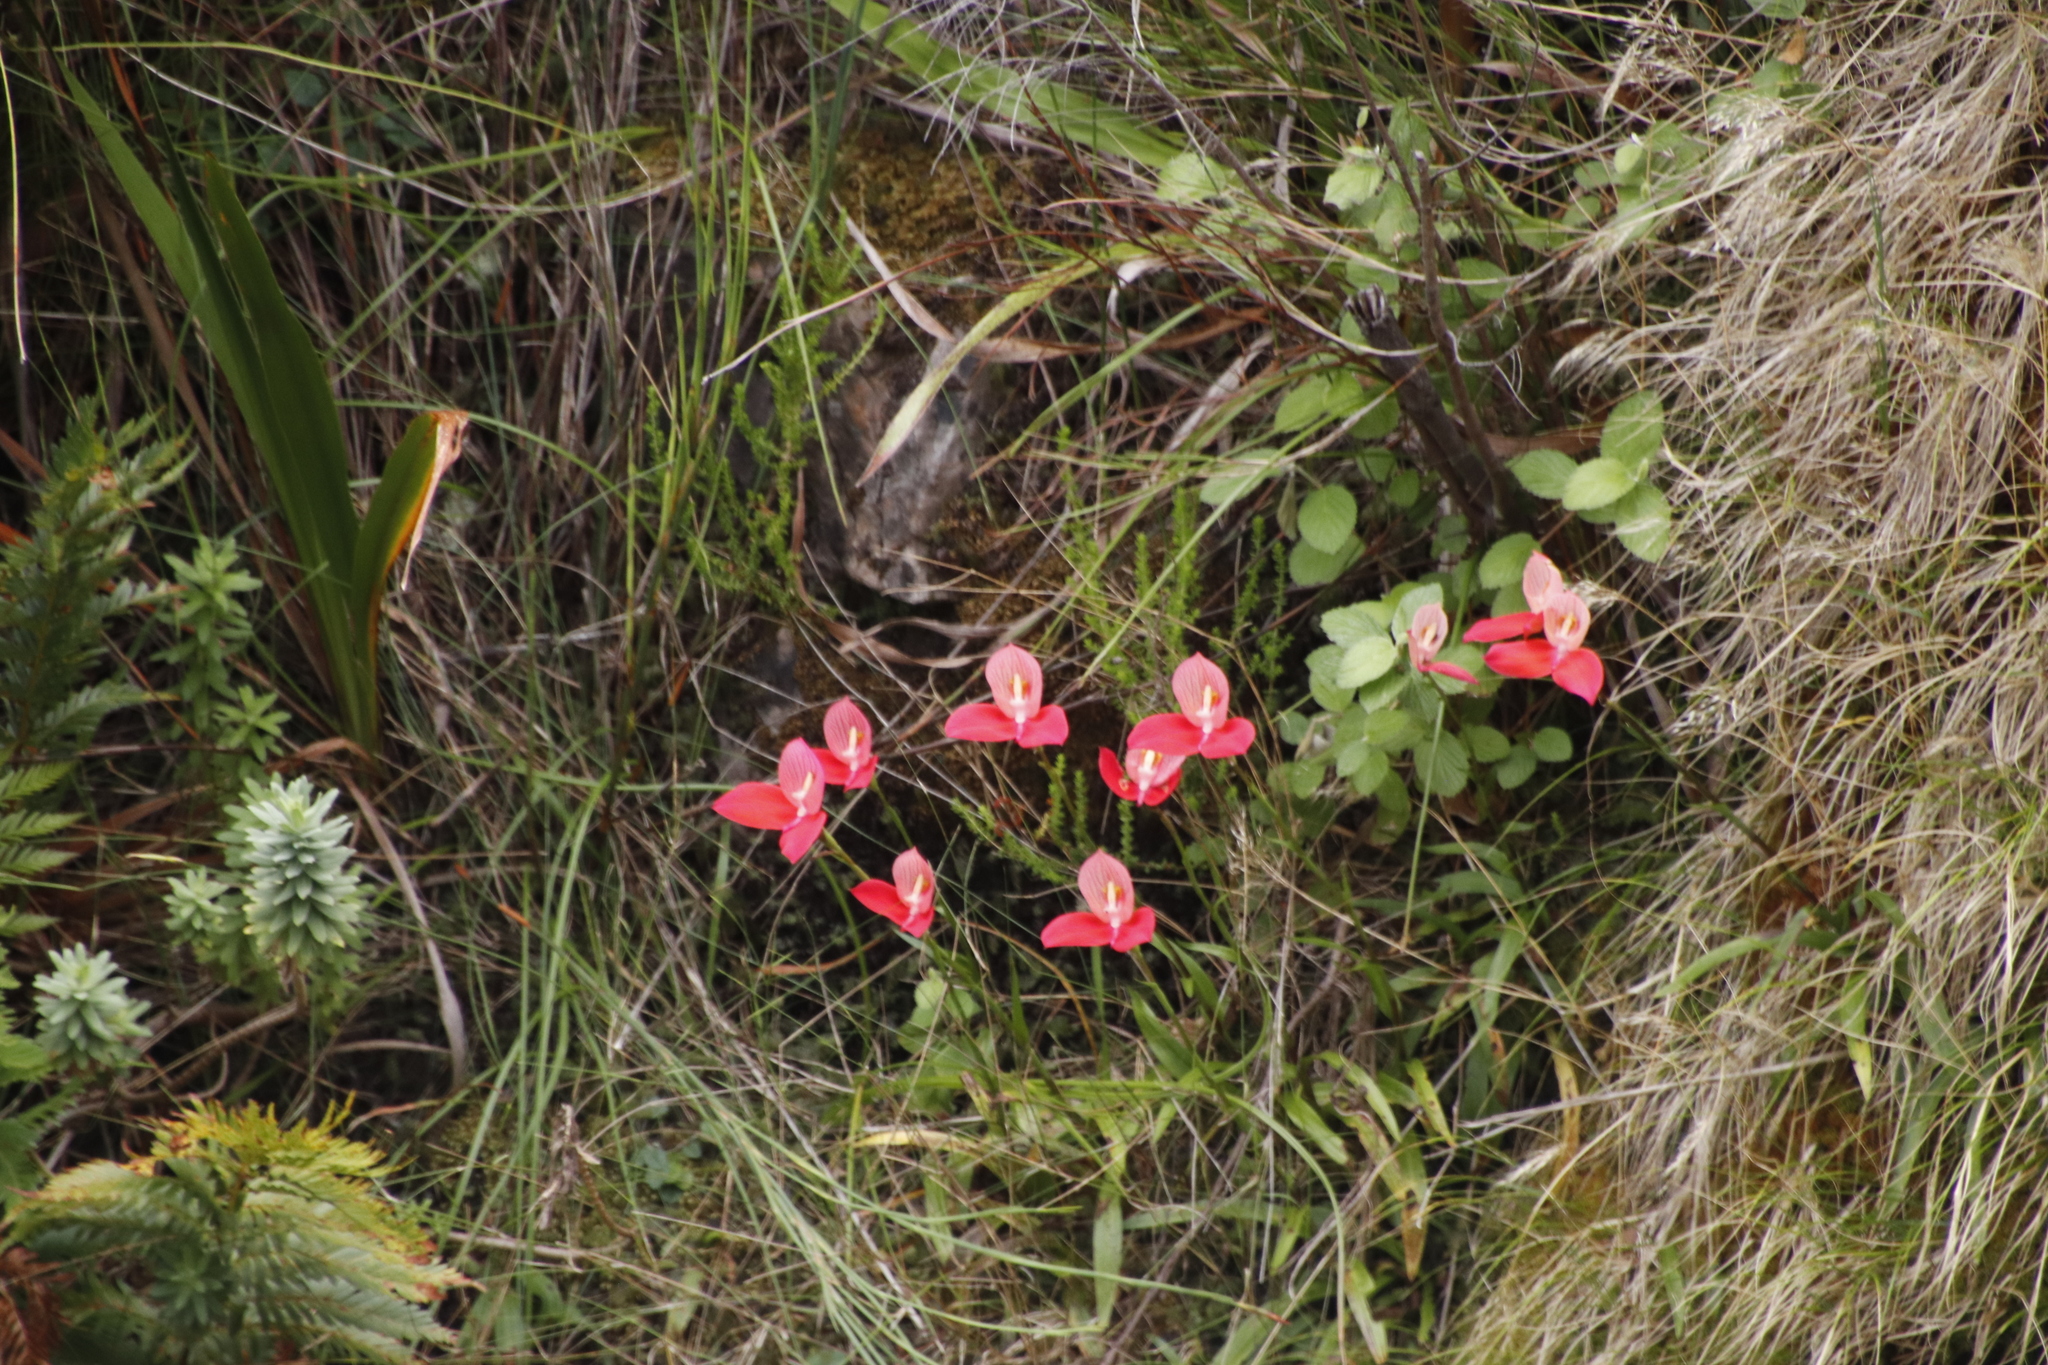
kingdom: Plantae
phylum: Tracheophyta
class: Liliopsida
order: Asparagales
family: Orchidaceae
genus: Disa
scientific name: Disa uniflora
